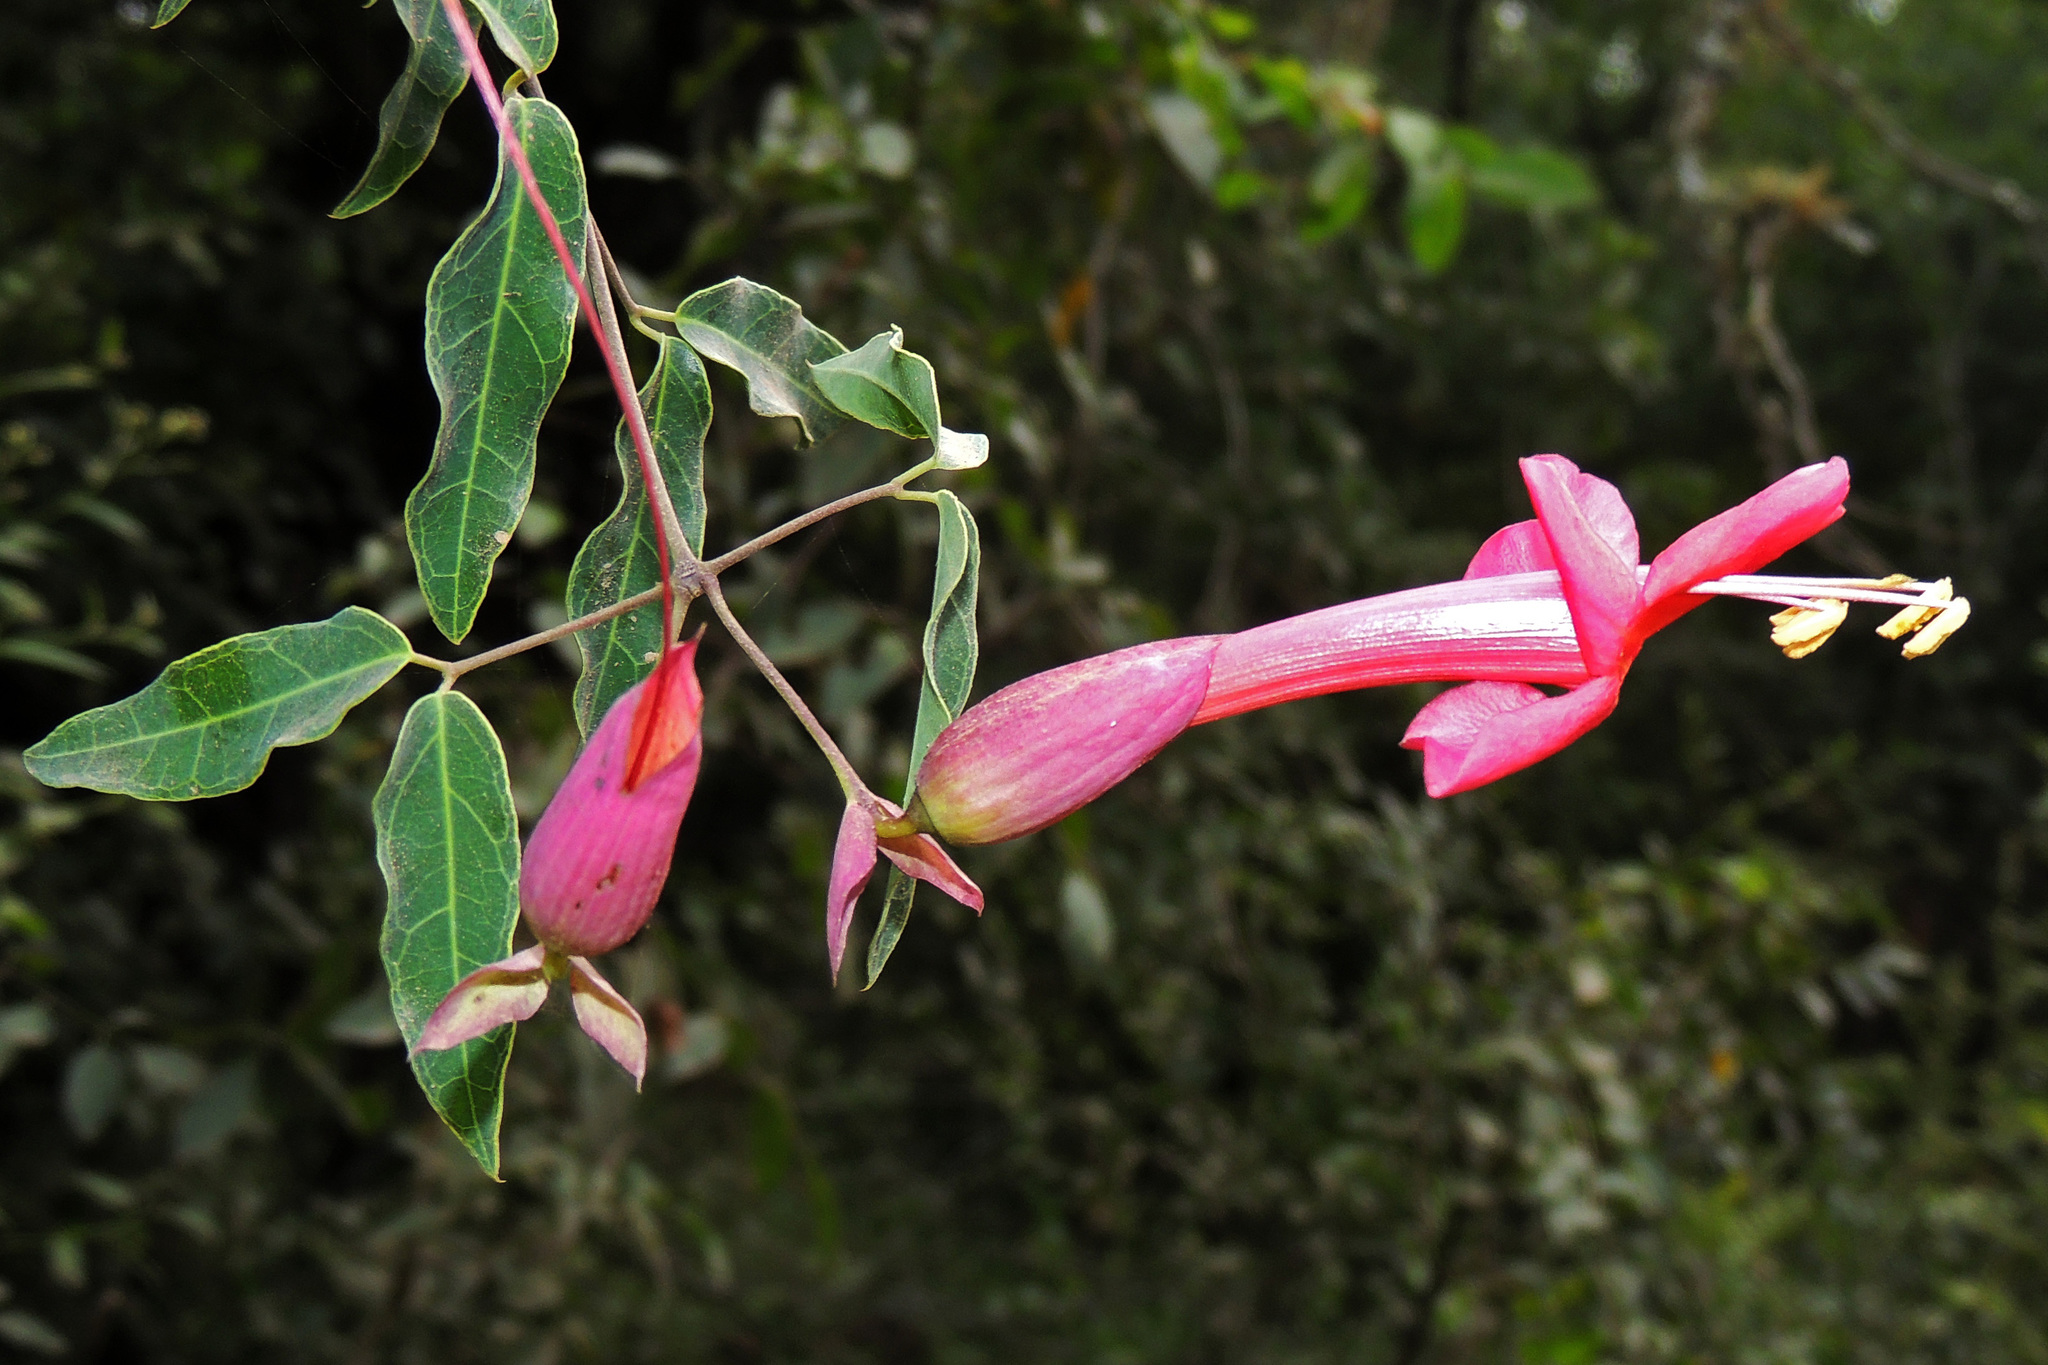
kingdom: Plantae
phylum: Tracheophyta
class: Magnoliopsida
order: Lamiales
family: Bignoniaceae
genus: Dolichandra
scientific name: Dolichandra cynanchoides
